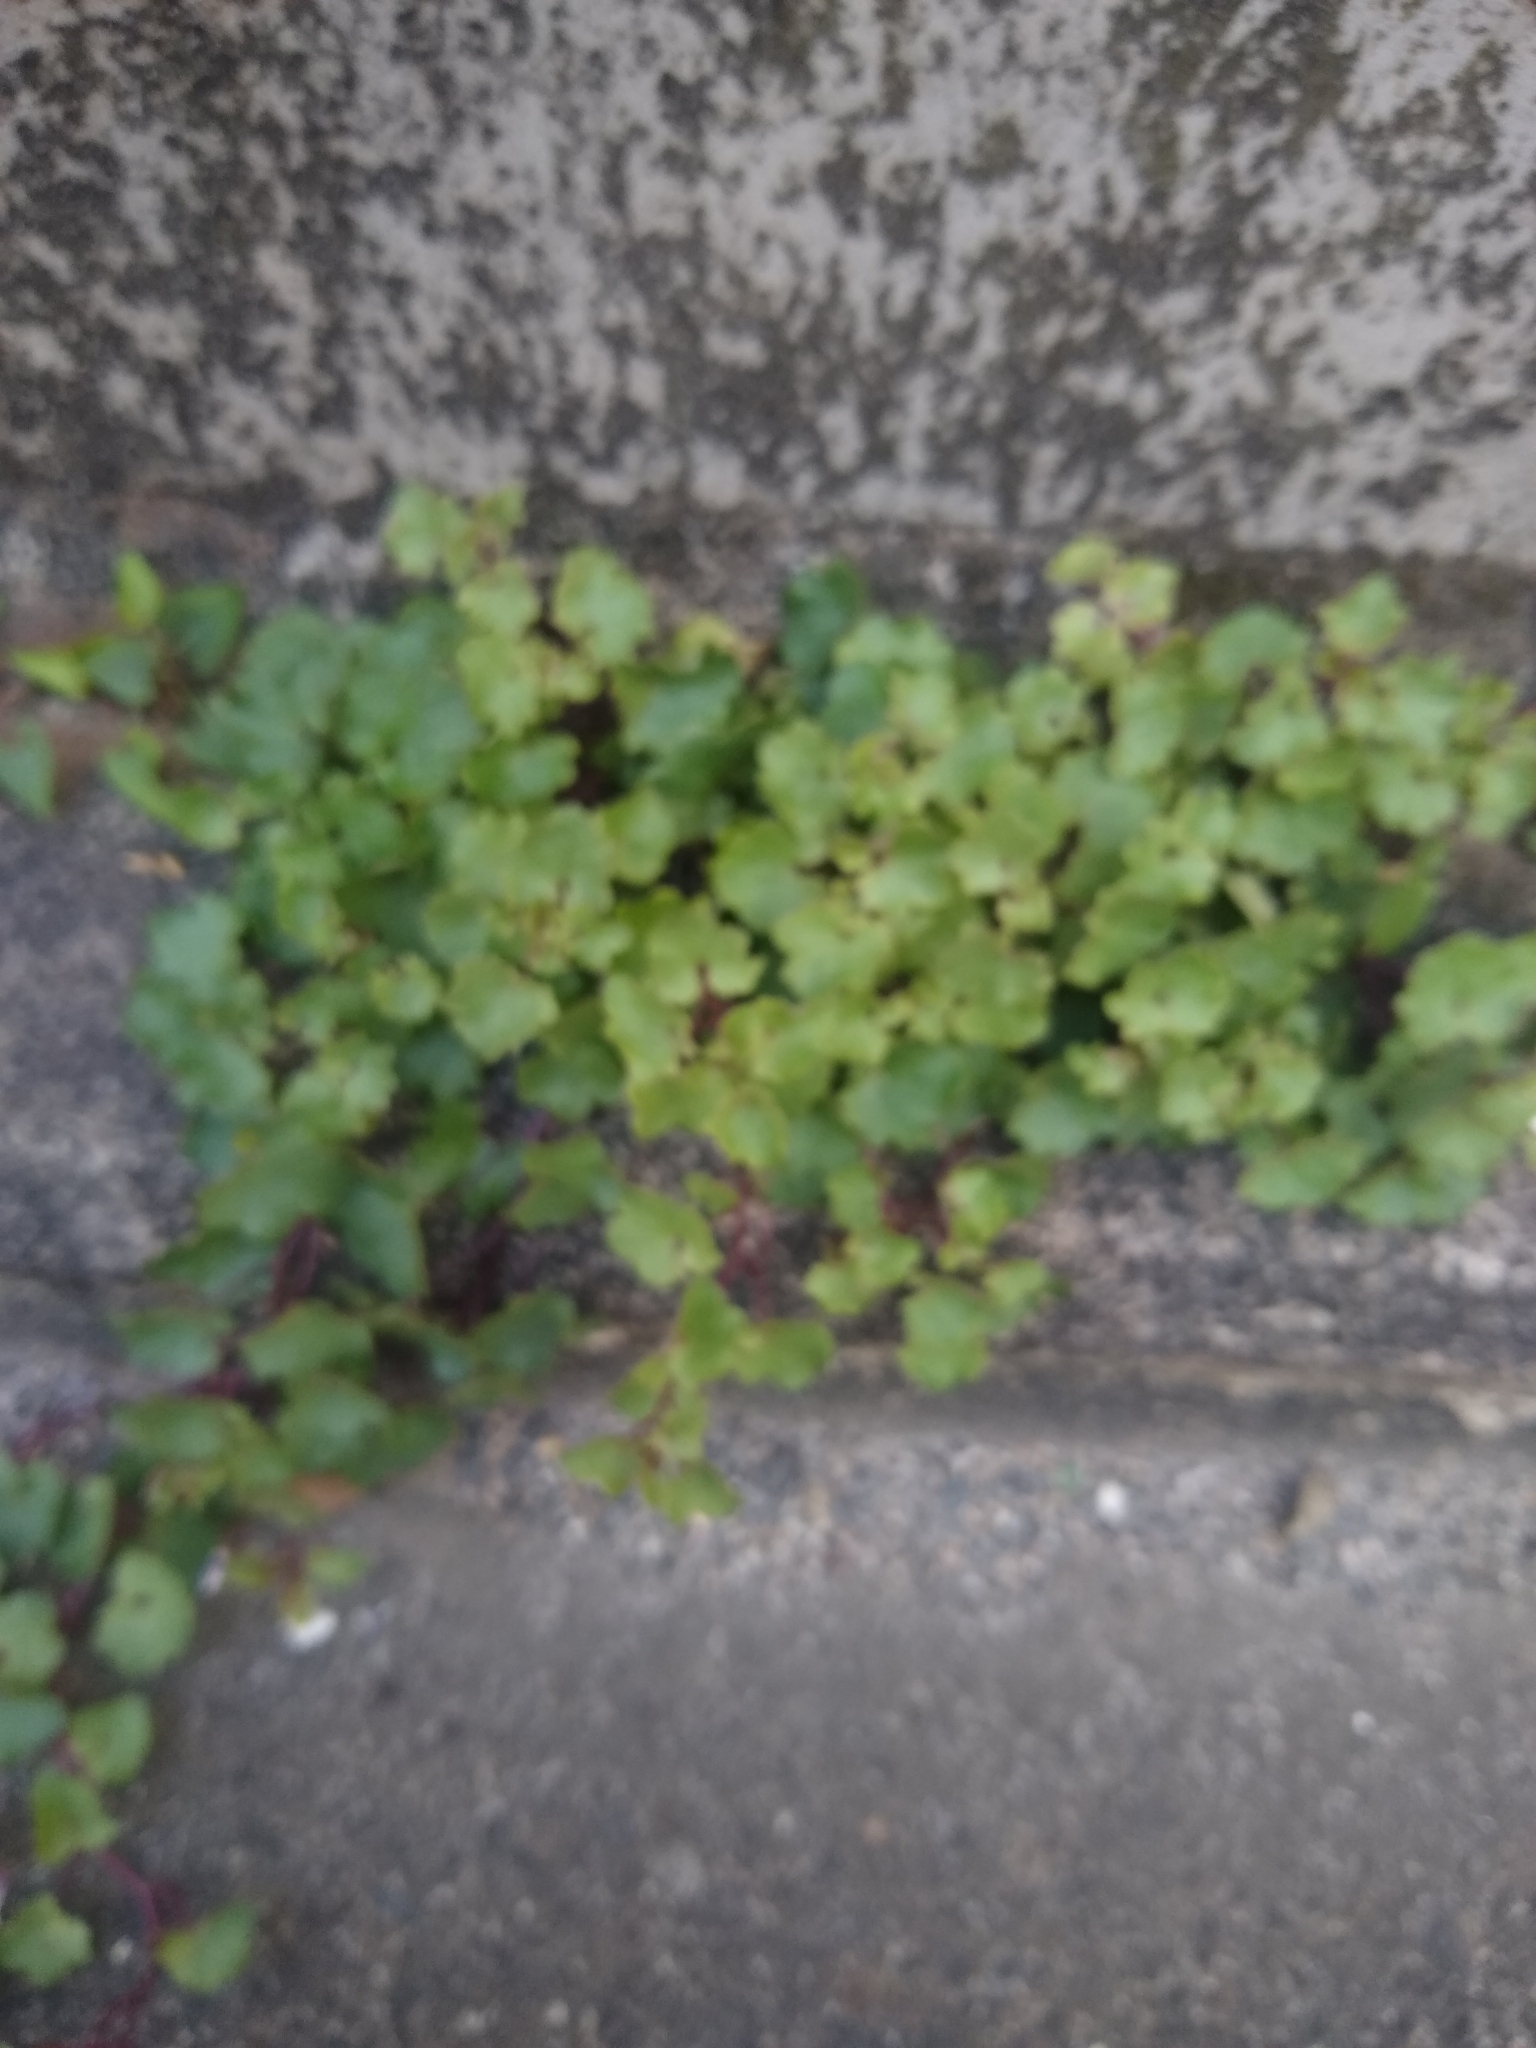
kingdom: Plantae
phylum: Tracheophyta
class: Magnoliopsida
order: Lamiales
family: Plantaginaceae
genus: Cymbalaria
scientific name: Cymbalaria muralis
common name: Ivy-leaved toadflax
